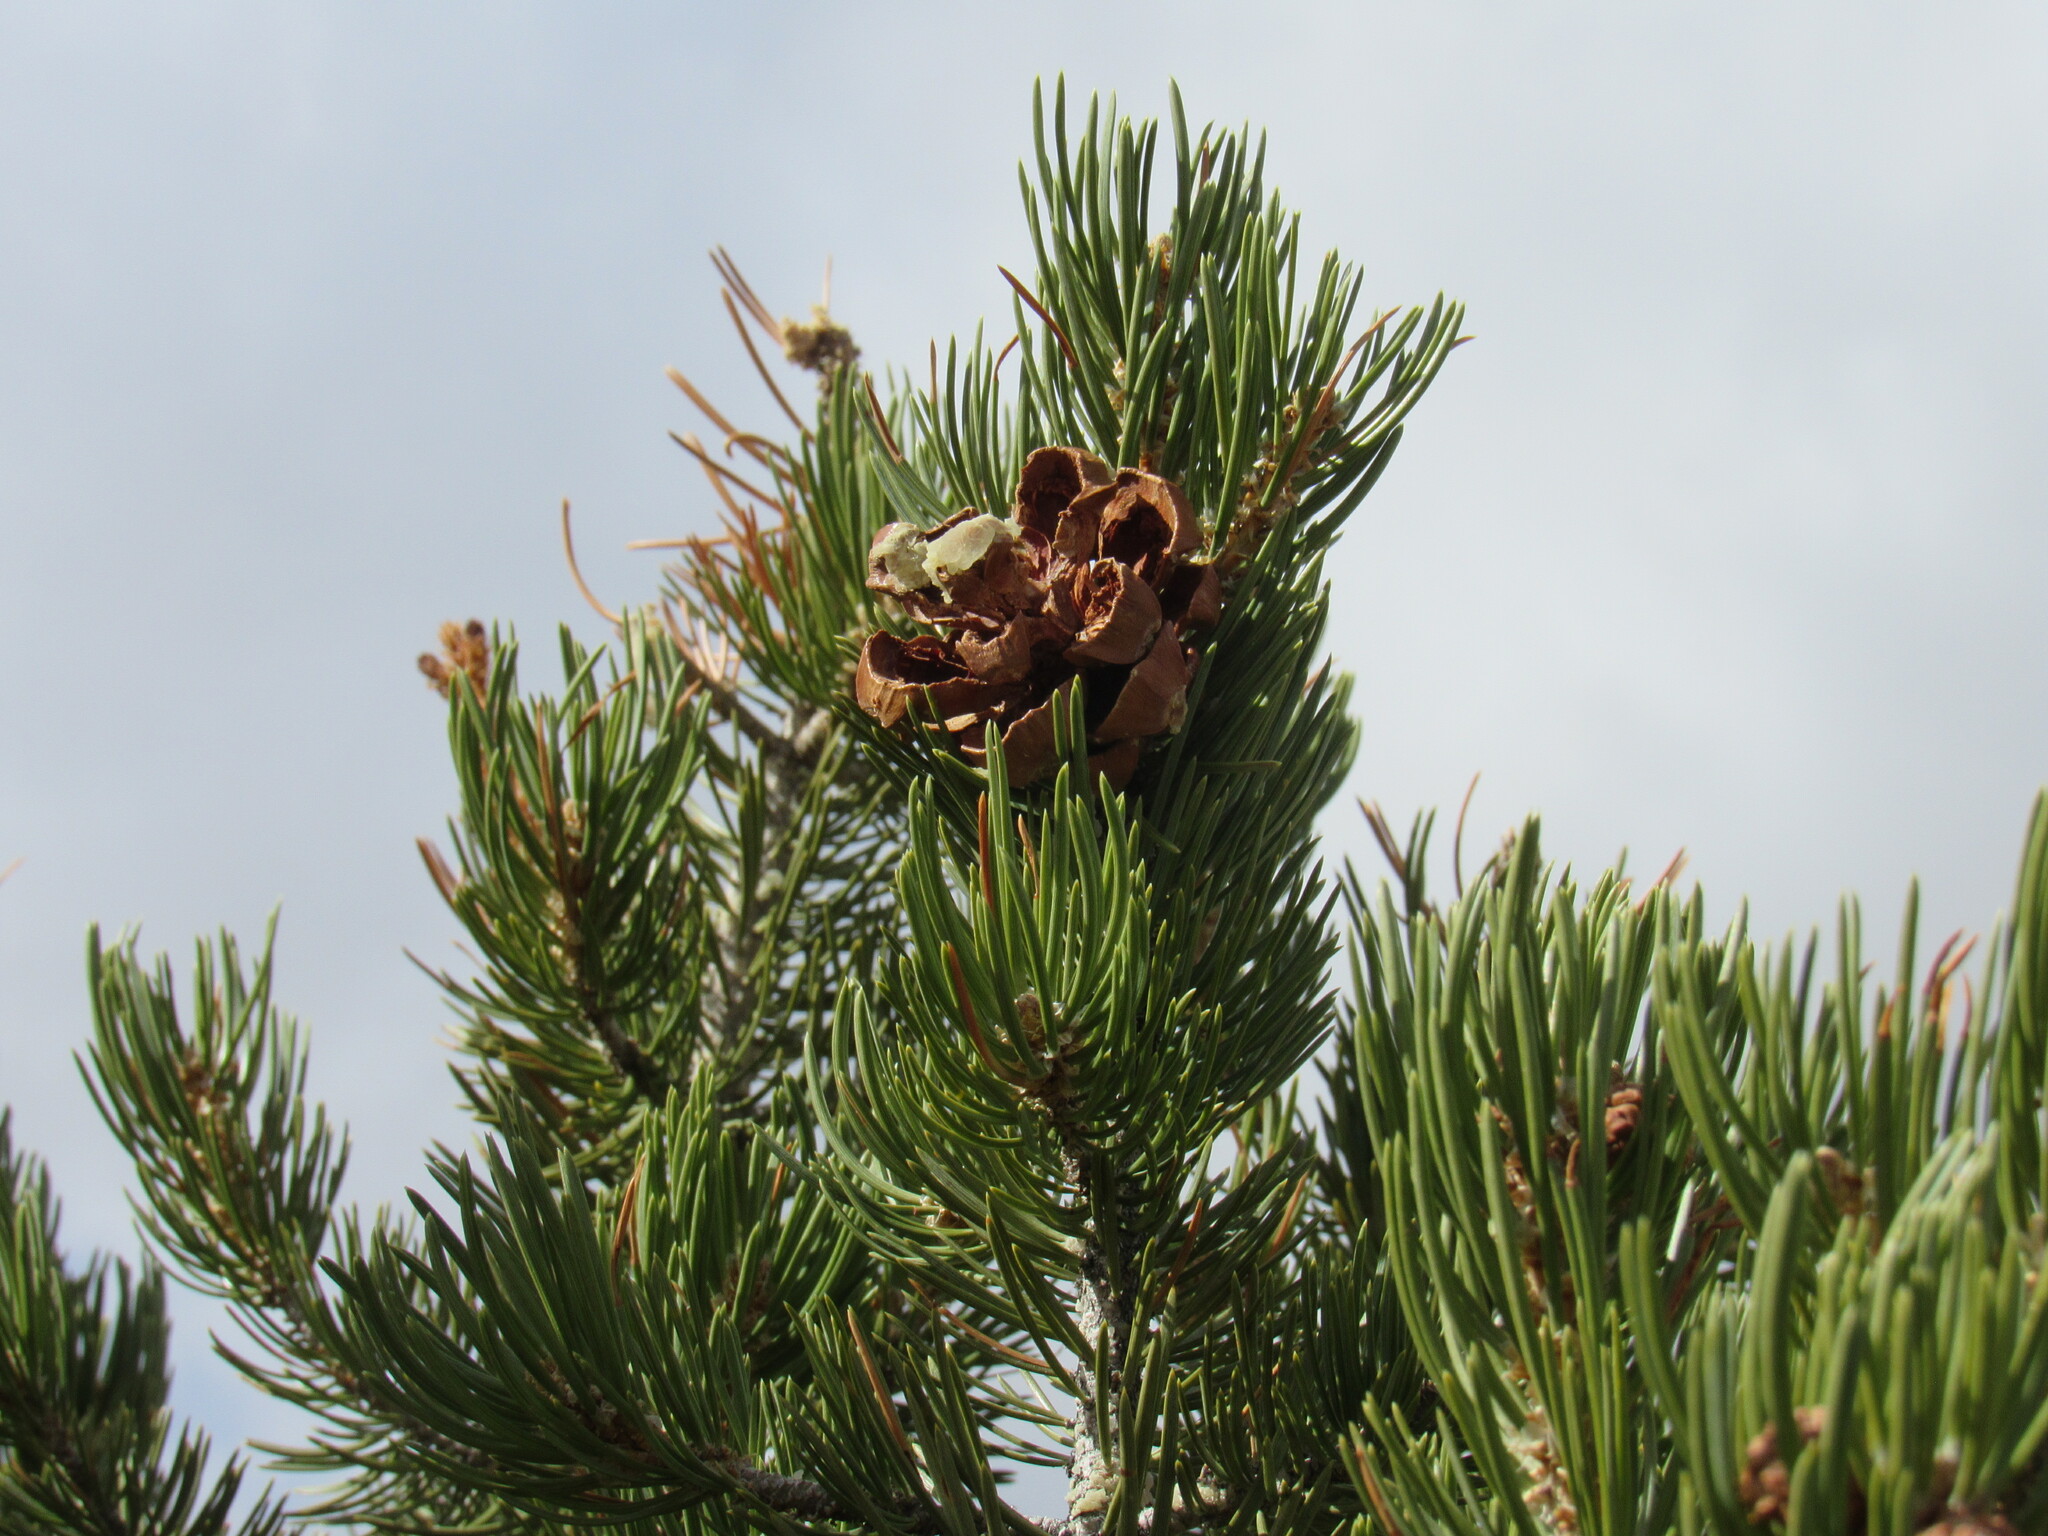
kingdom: Plantae
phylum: Tracheophyta
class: Pinopsida
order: Pinales
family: Pinaceae
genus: Pinus
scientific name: Pinus edulis
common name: Colorado pinyon
